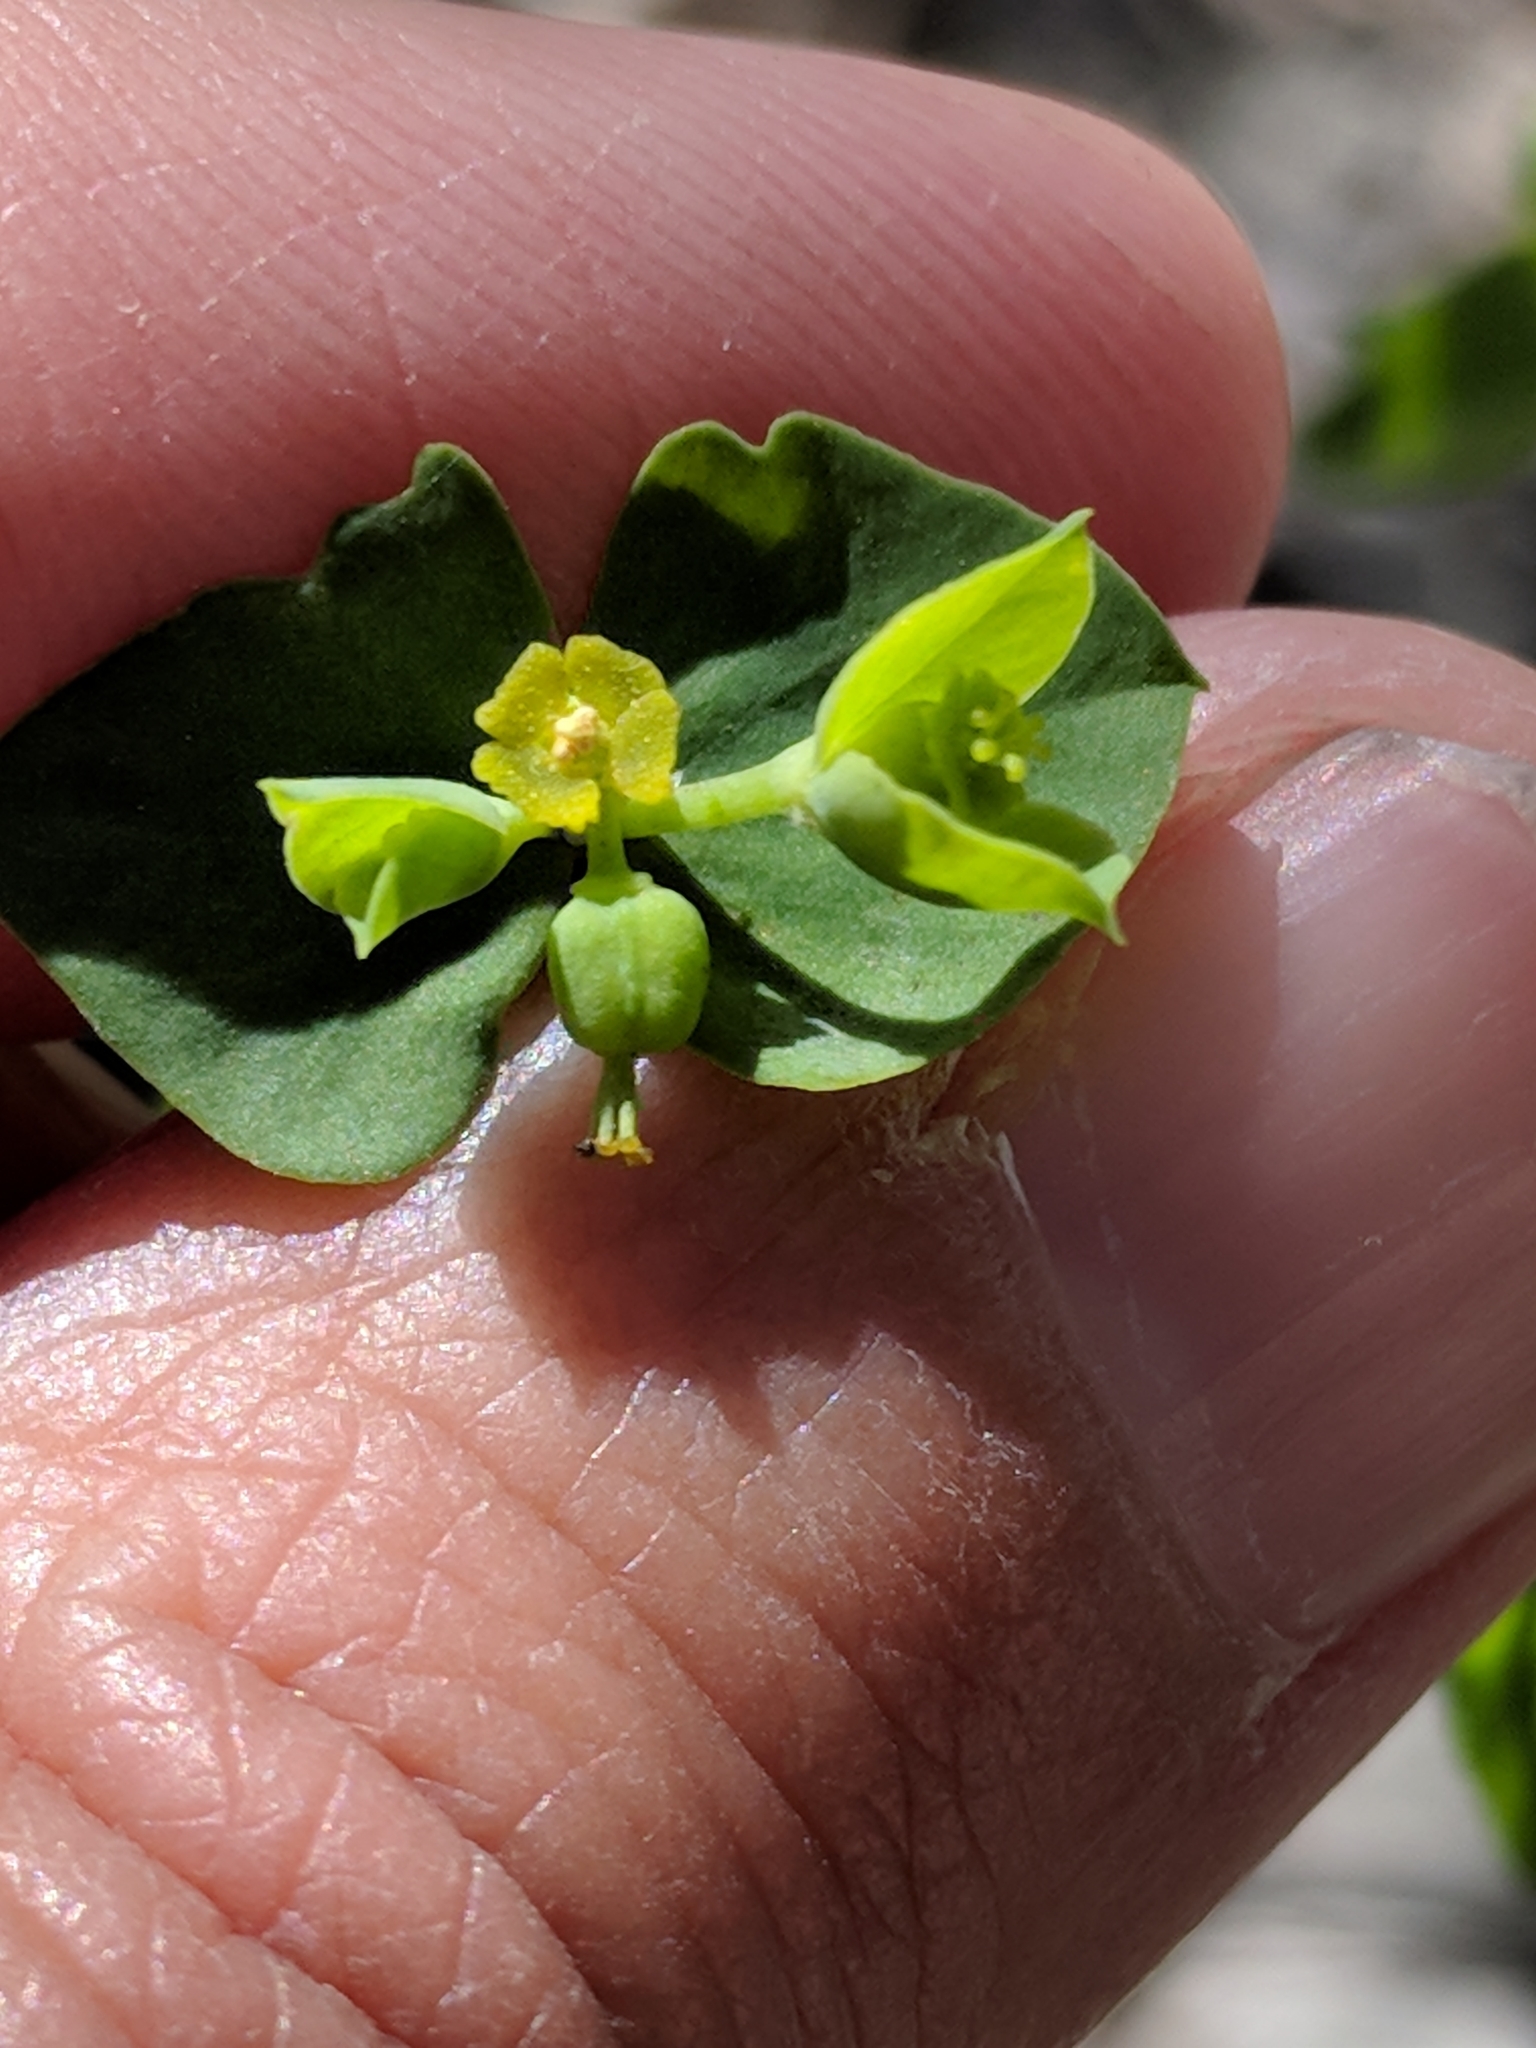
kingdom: Plantae
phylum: Tracheophyta
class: Magnoliopsida
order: Malpighiales
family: Euphorbiaceae
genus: Euphorbia
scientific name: Euphorbia brachycera
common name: Shorthorn spurge
